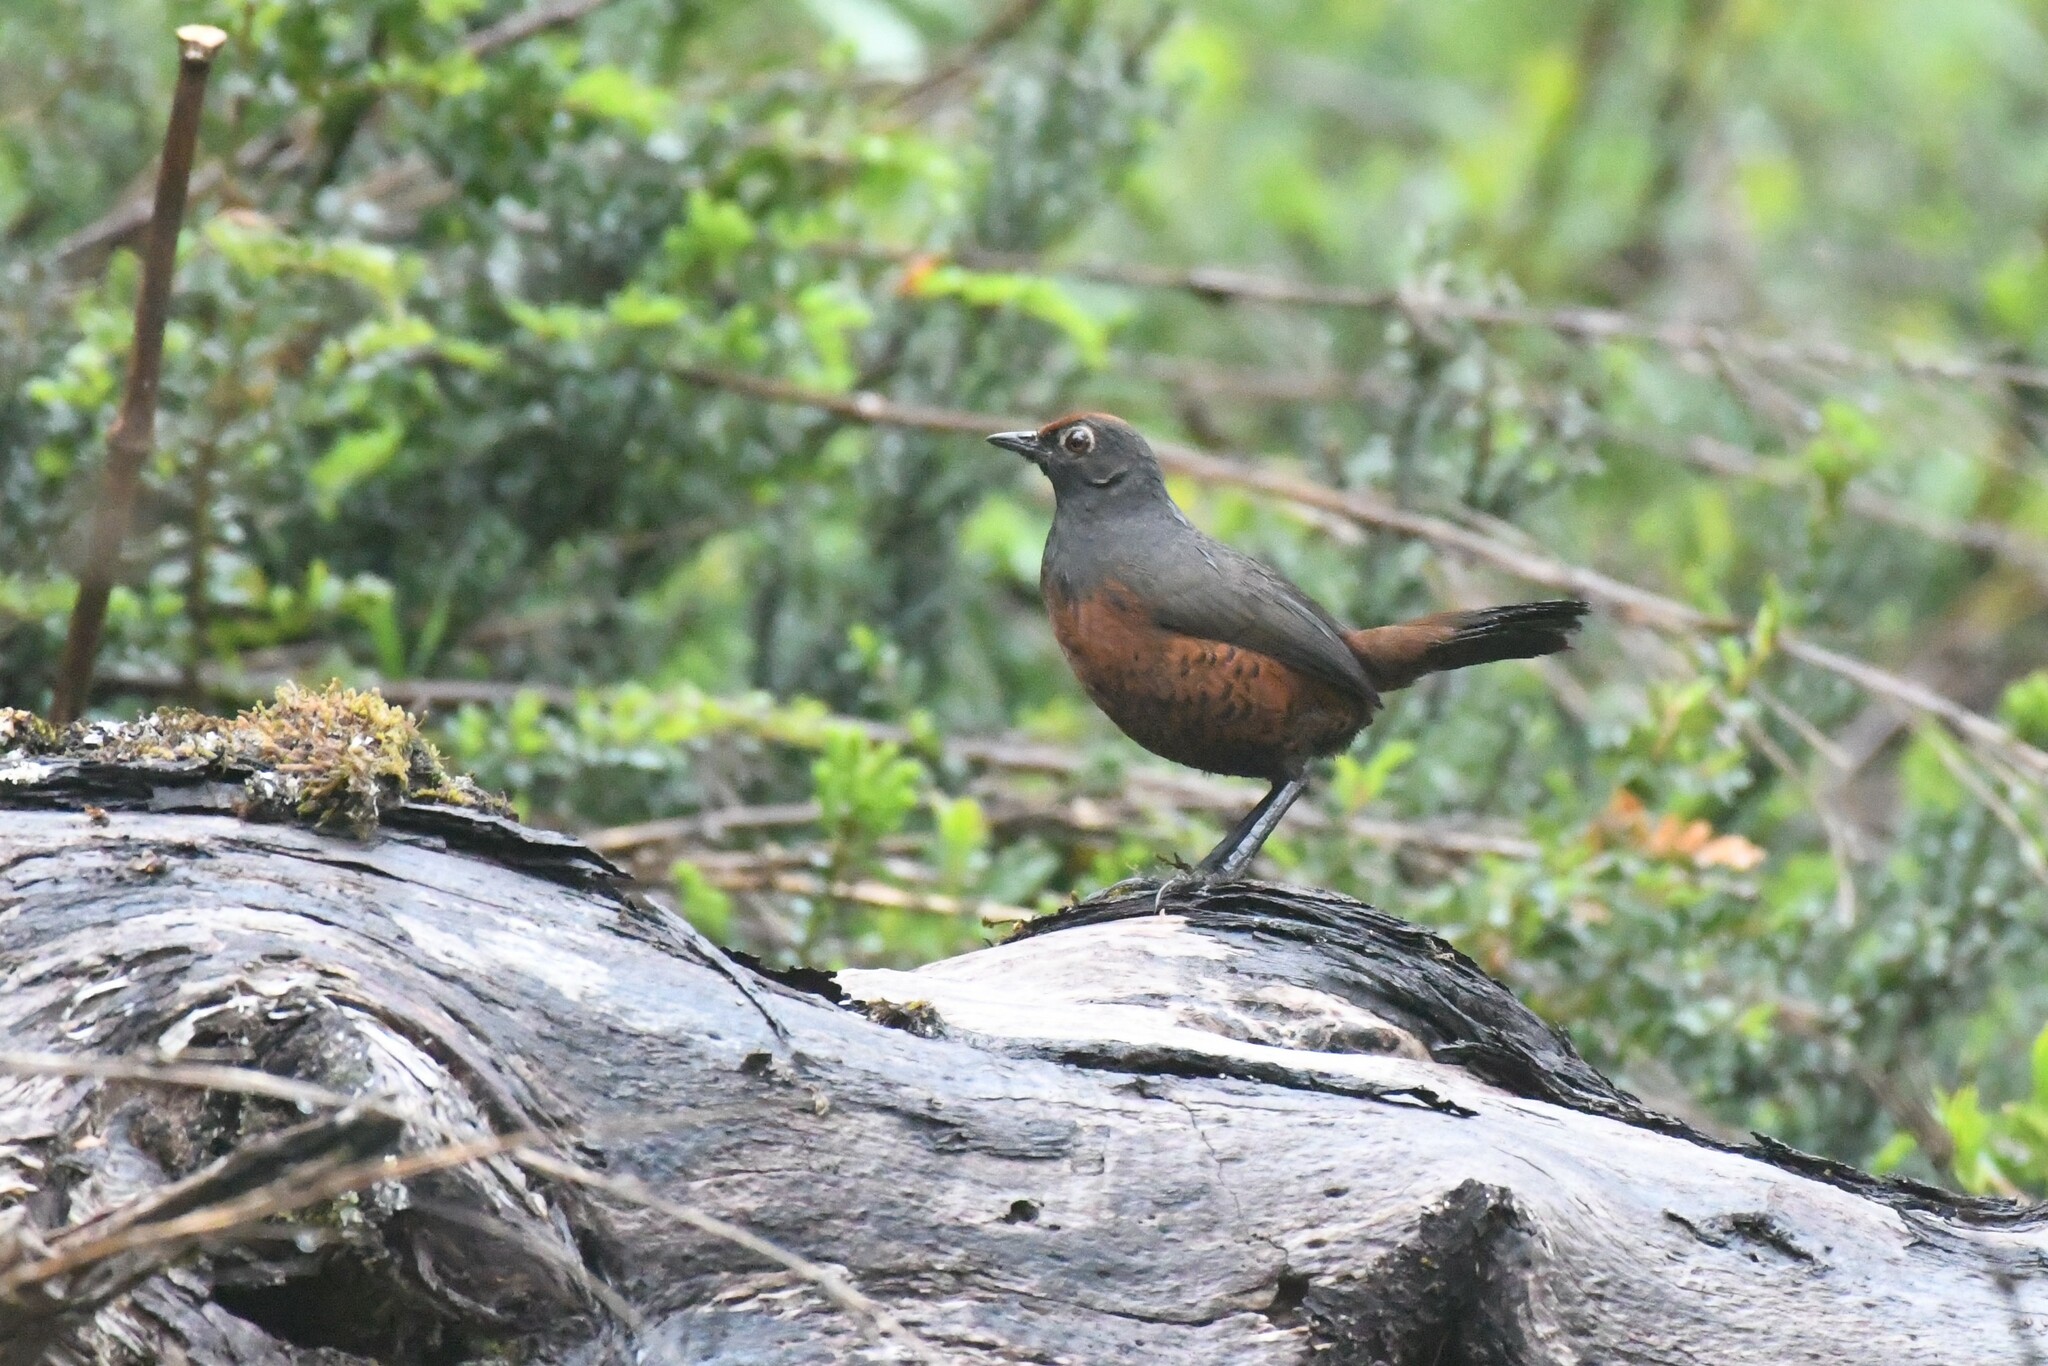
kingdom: Animalia
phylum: Chordata
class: Aves
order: Passeriformes
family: Rhinocryptidae
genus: Pteroptochos
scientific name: Pteroptochos tarnii
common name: Black-throated huet-huet
